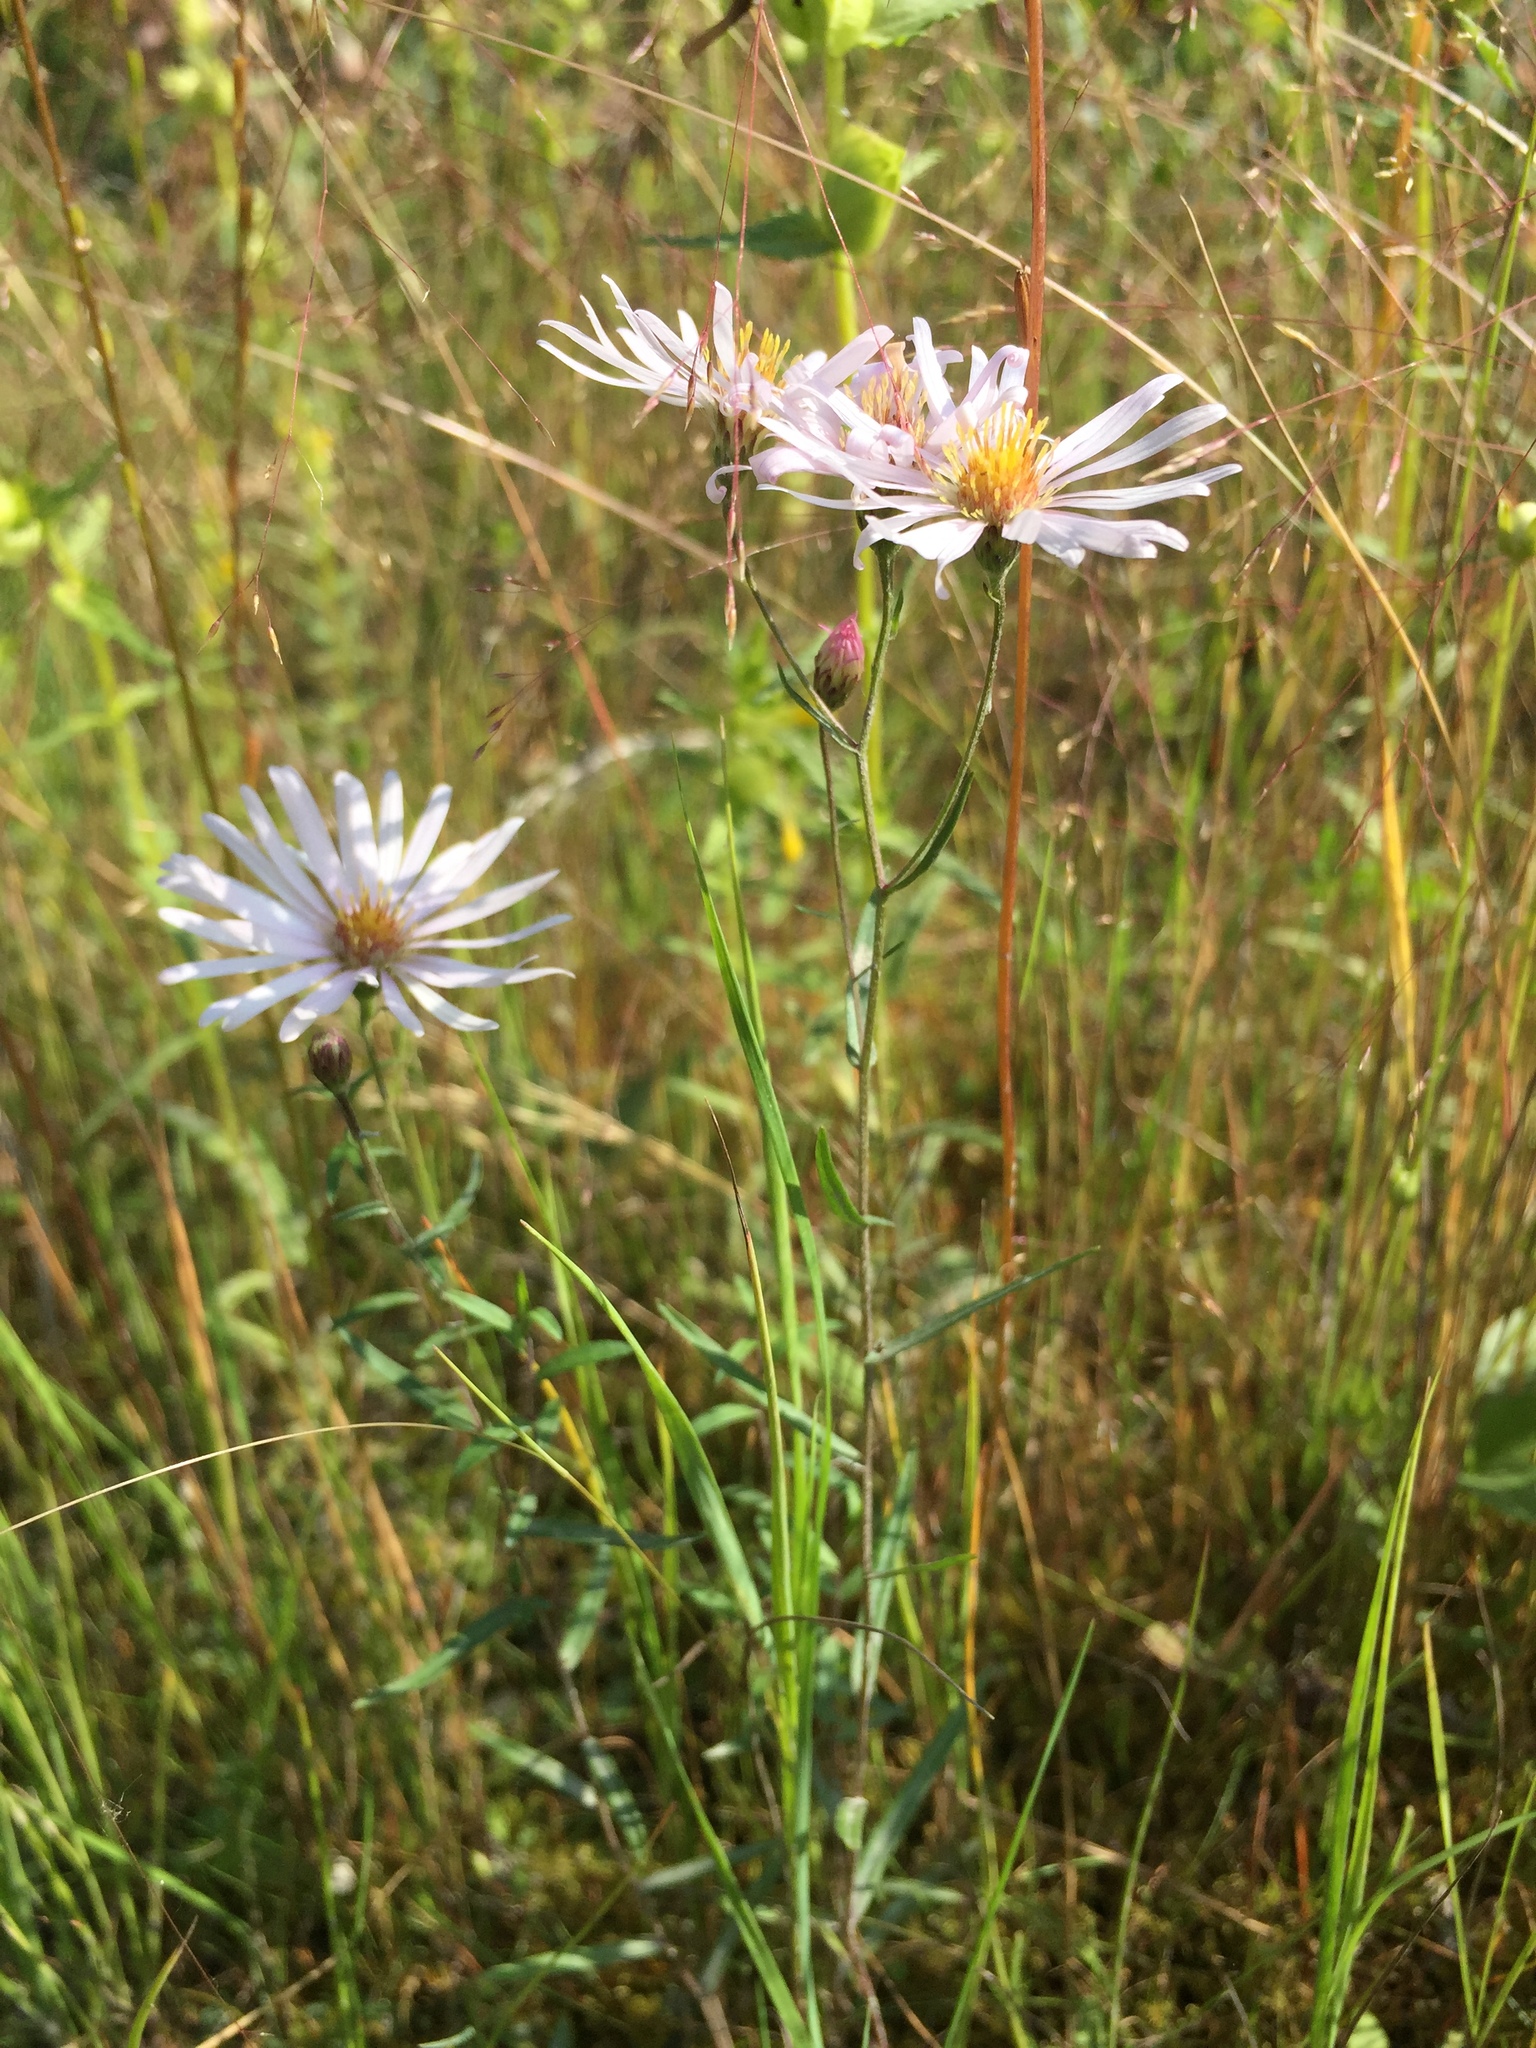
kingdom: Plantae
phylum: Tracheophyta
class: Magnoliopsida
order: Asterales
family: Asteraceae
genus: Symphyotrichum
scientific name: Symphyotrichum boreale
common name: Northern bog aster
